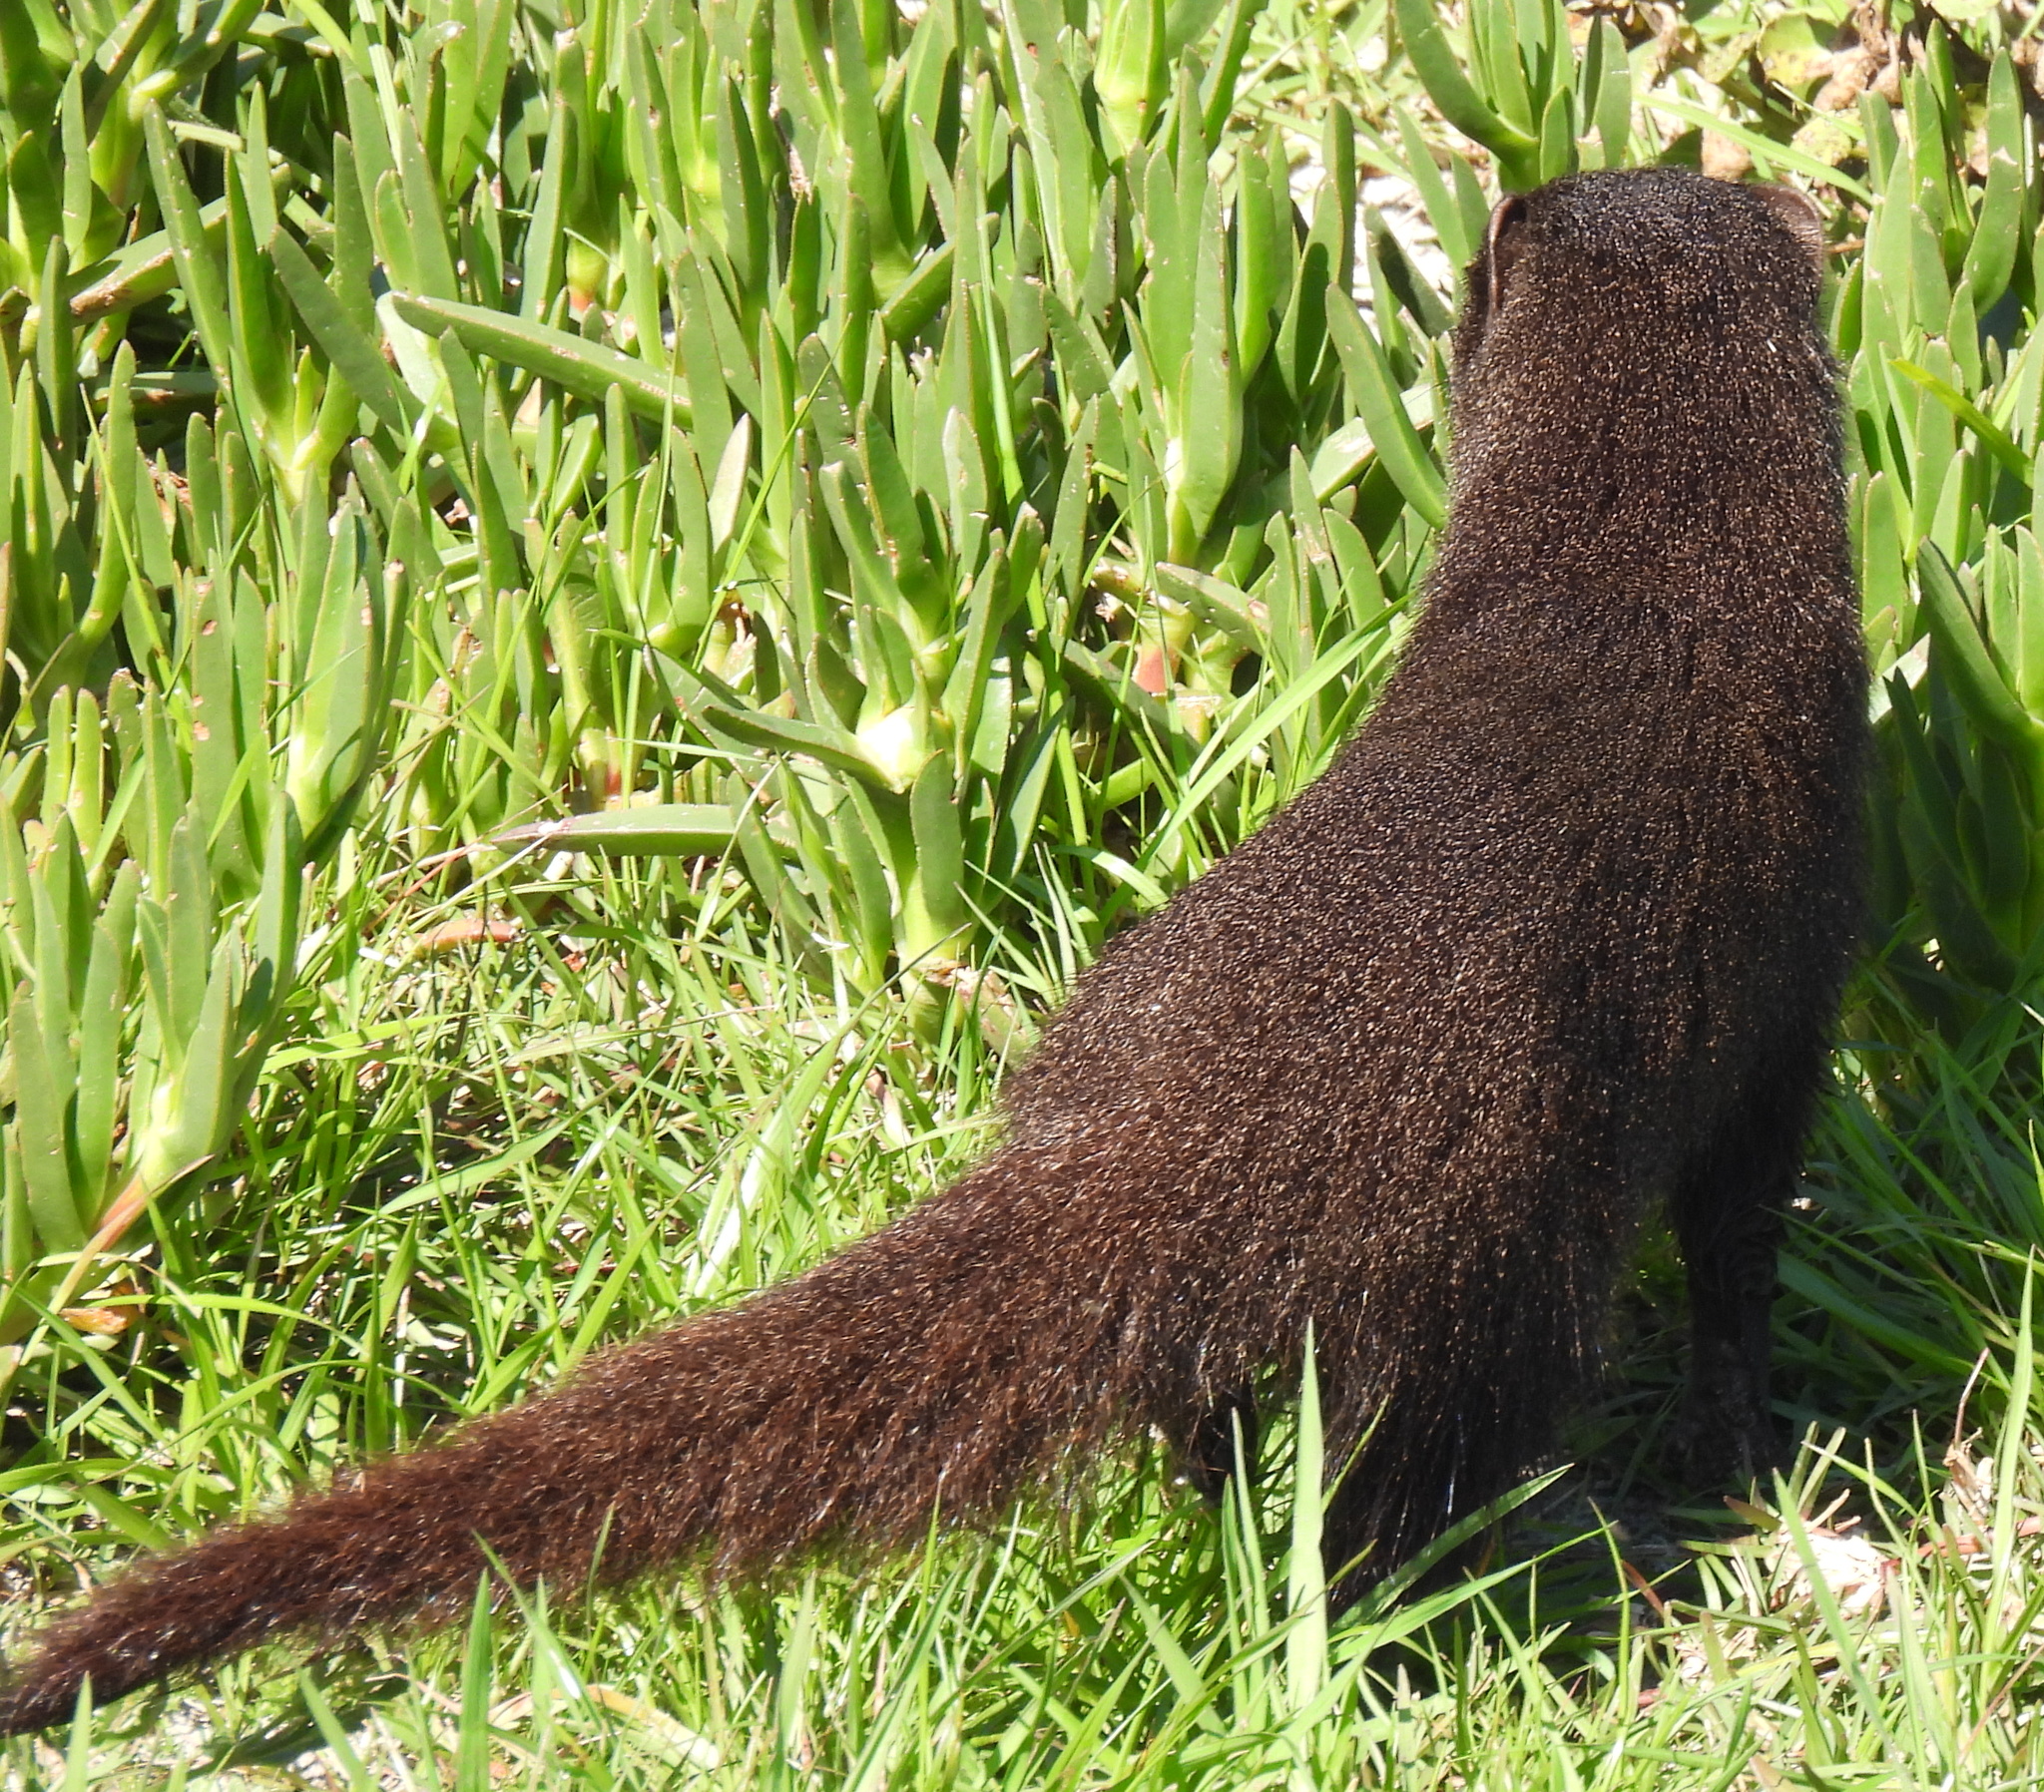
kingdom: Animalia
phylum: Chordata
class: Mammalia
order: Carnivora
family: Herpestidae
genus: Atilax
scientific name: Atilax paludinosus
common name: Marsh mongoose
